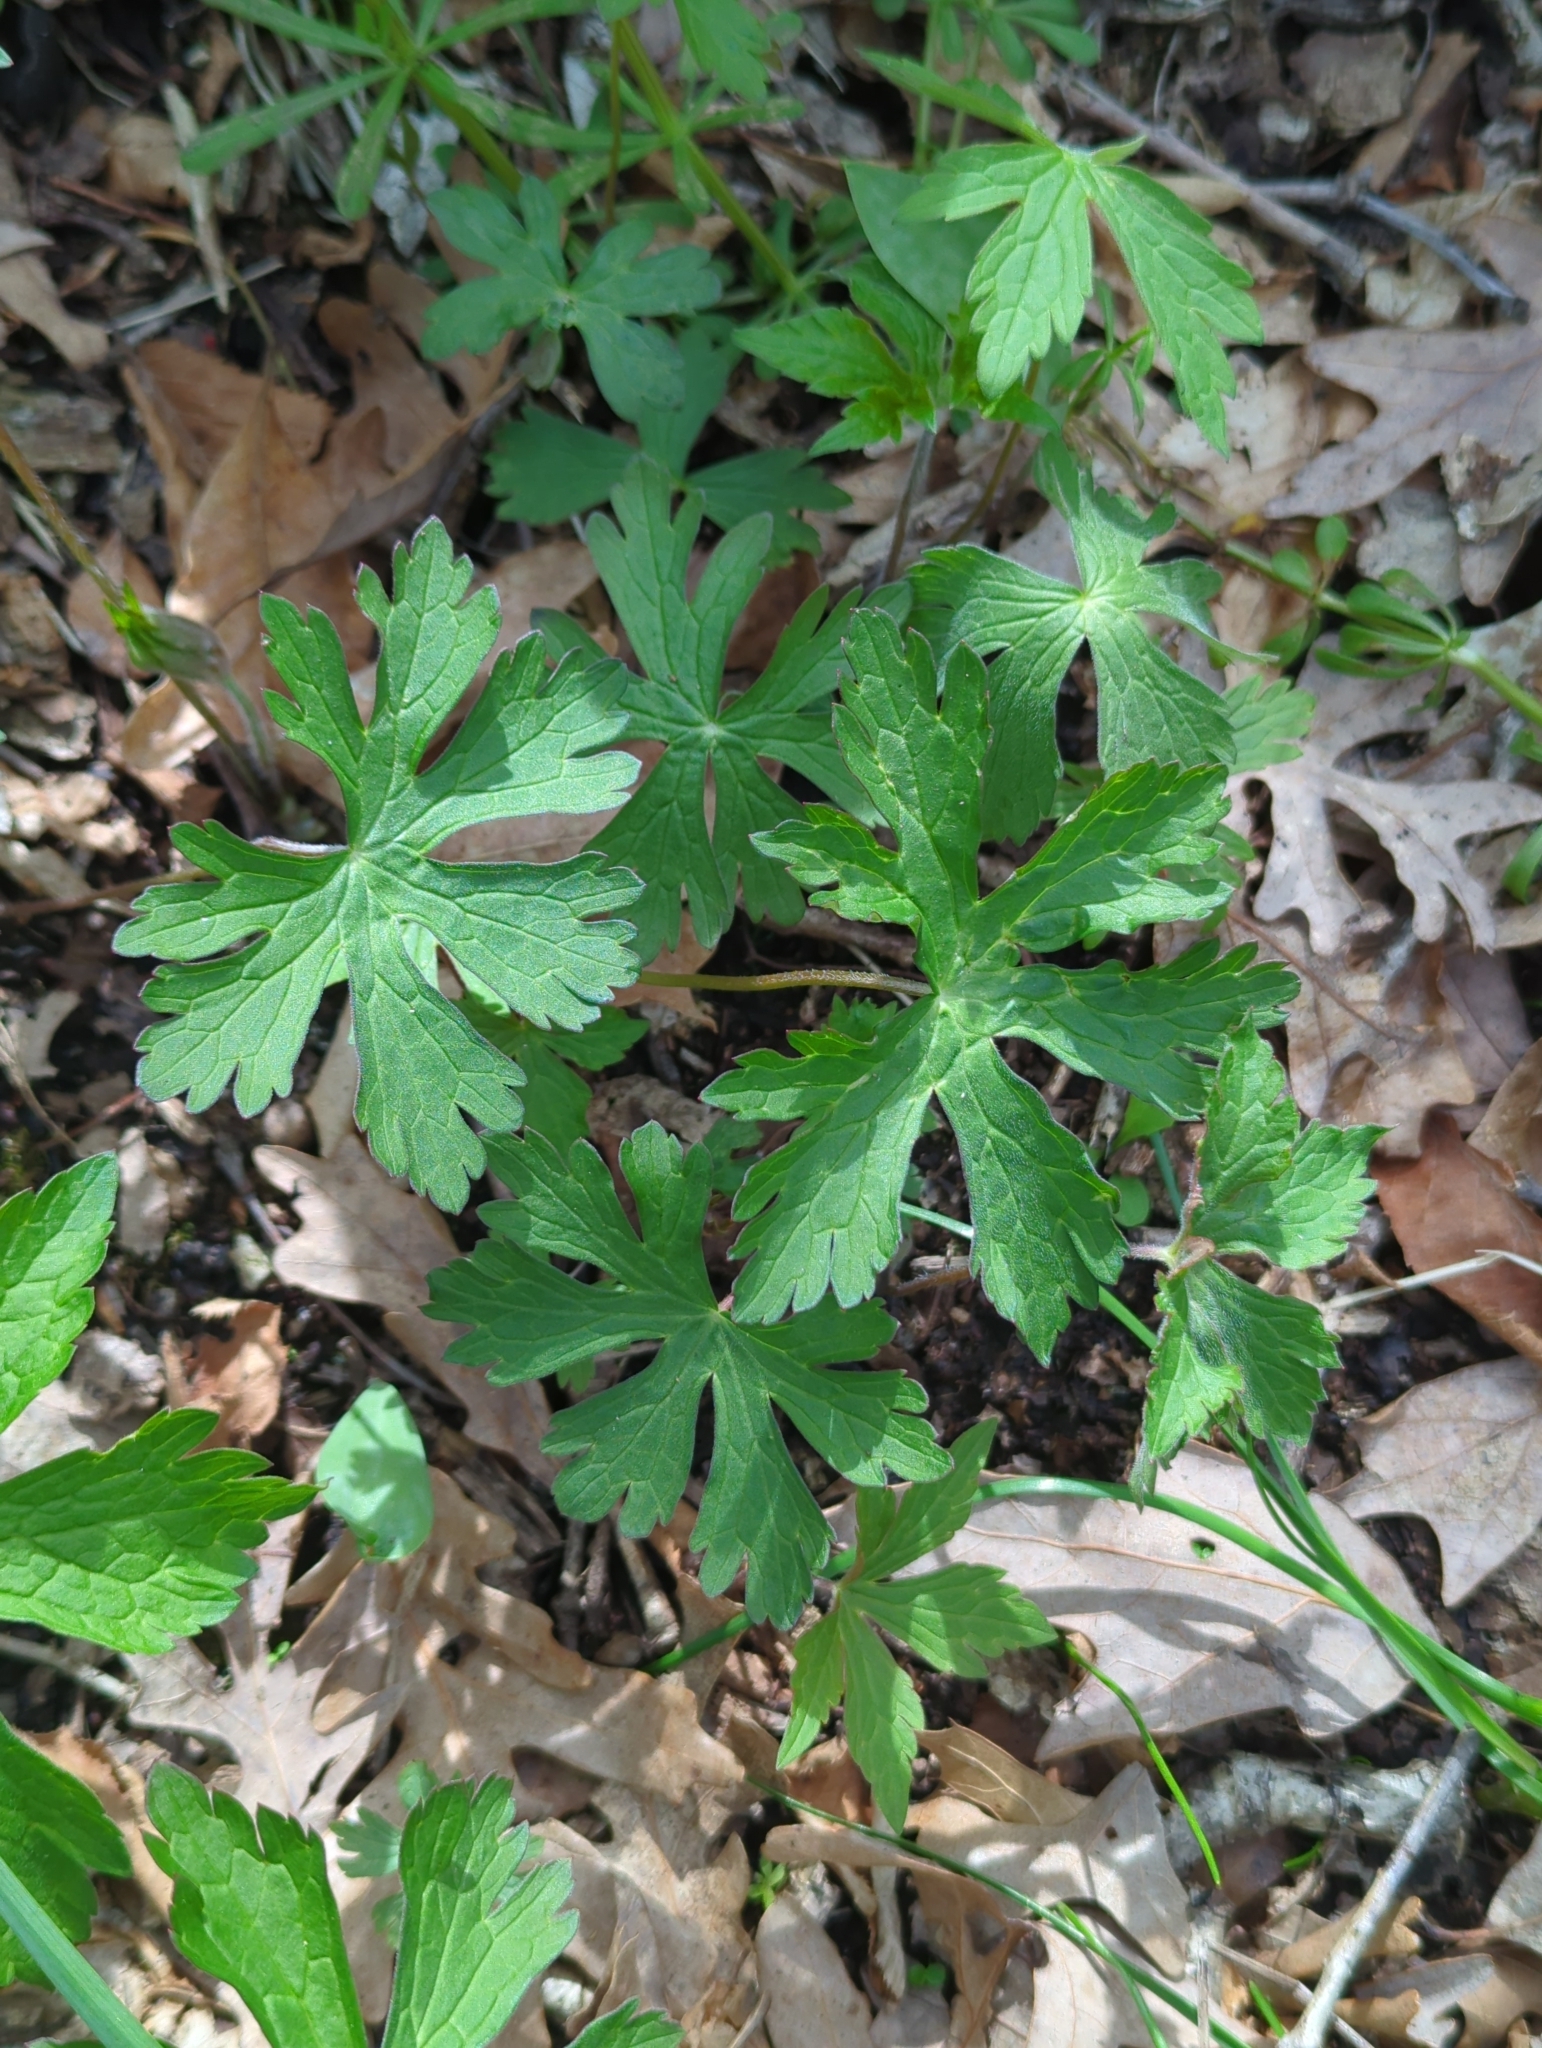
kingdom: Plantae
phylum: Tracheophyta
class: Magnoliopsida
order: Geraniales
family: Geraniaceae
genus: Geranium
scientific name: Geranium maculatum
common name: Spotted geranium
